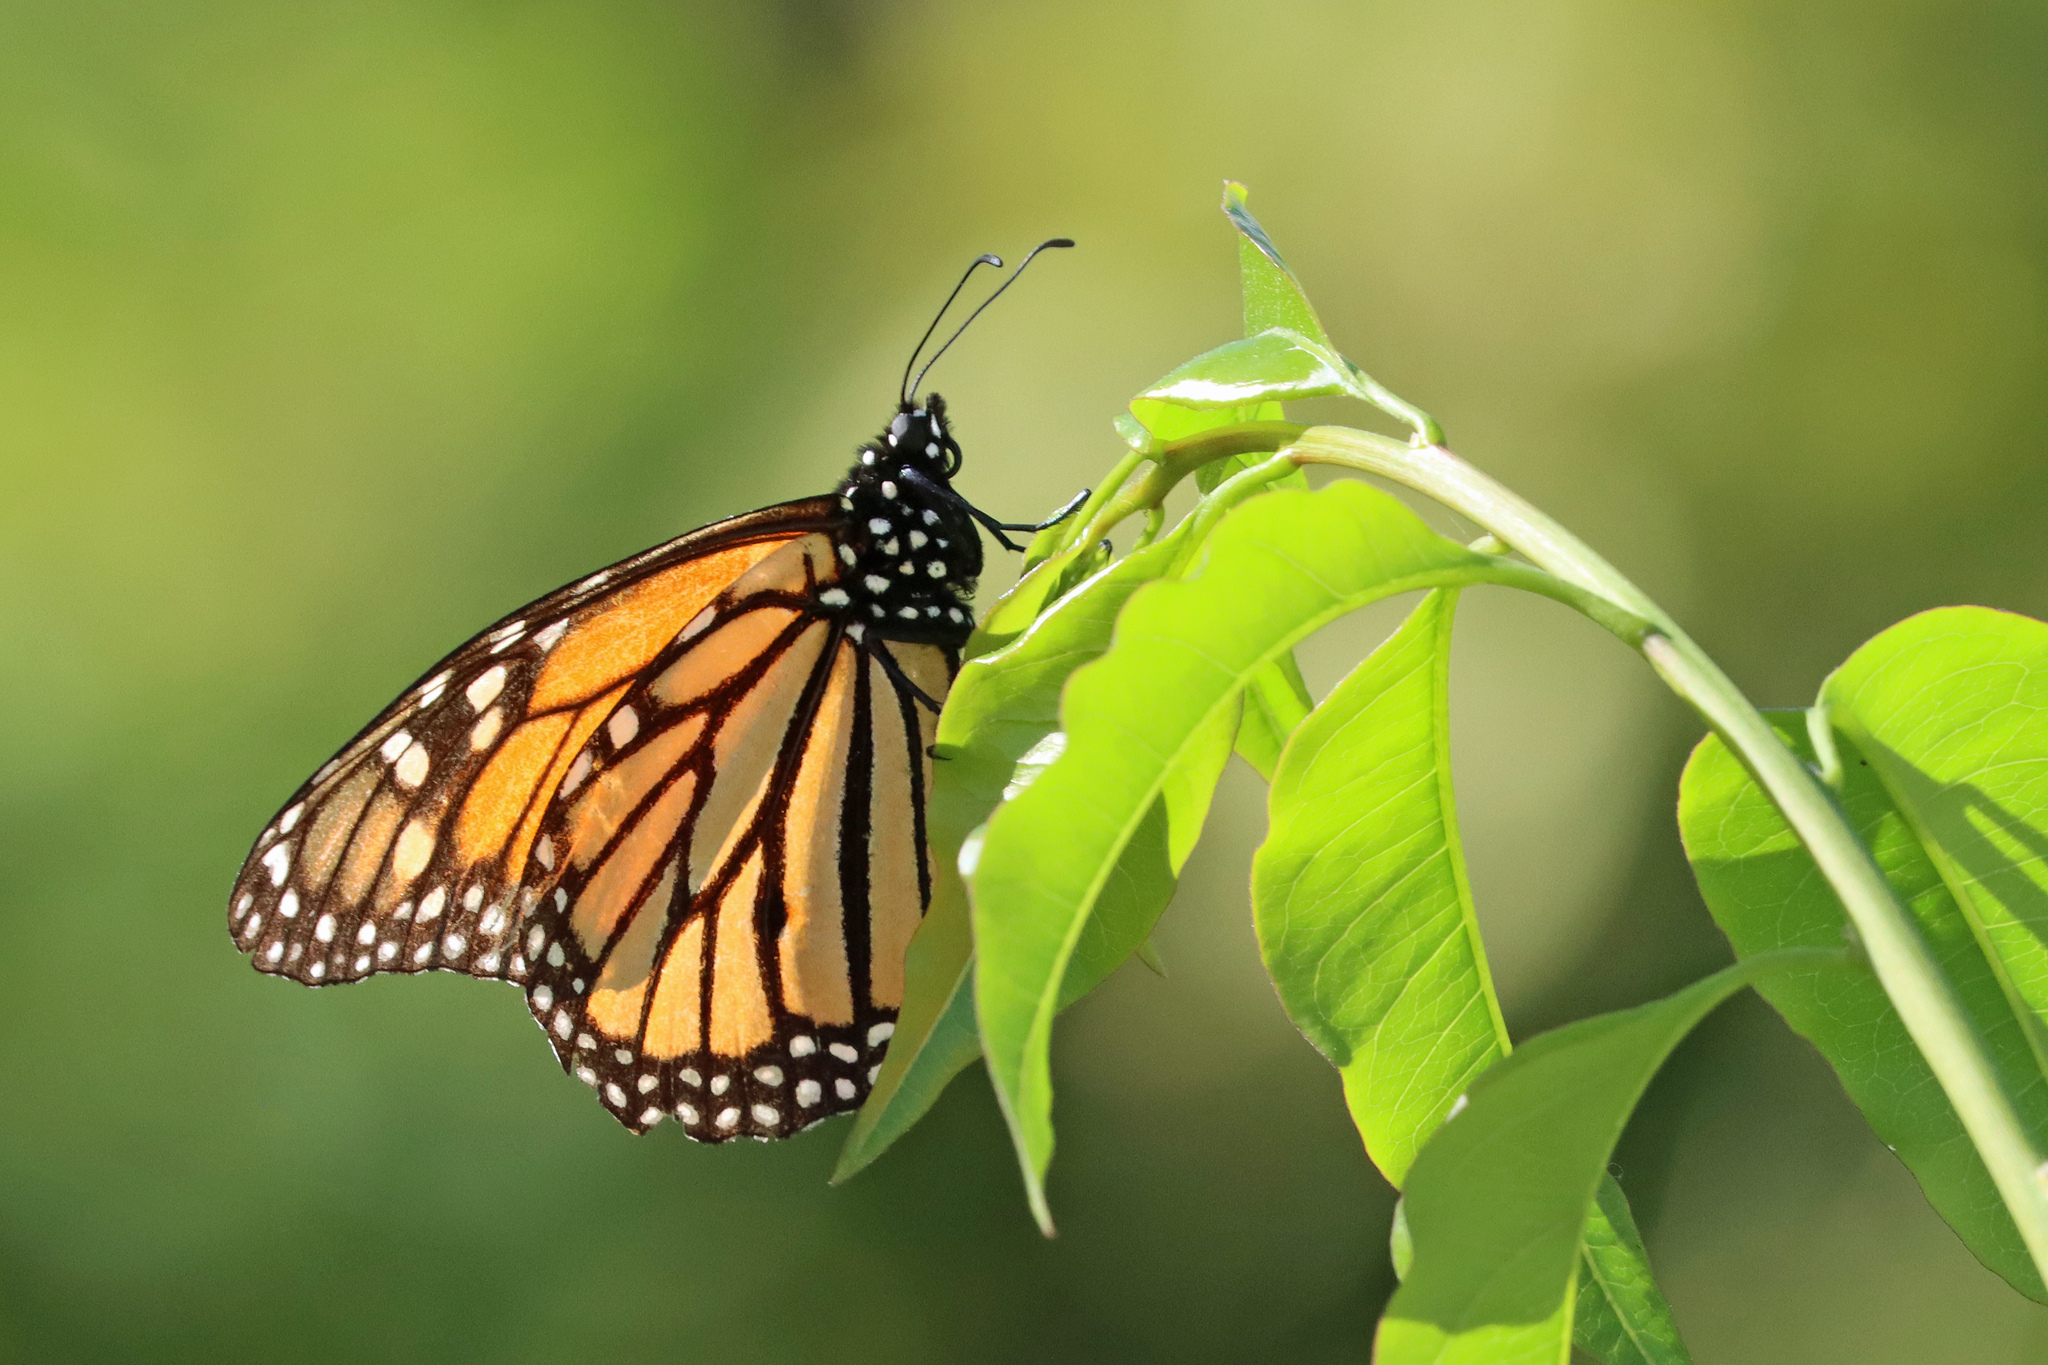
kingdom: Animalia
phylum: Arthropoda
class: Insecta
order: Lepidoptera
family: Nymphalidae
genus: Danaus
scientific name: Danaus plexippus
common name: Monarch
